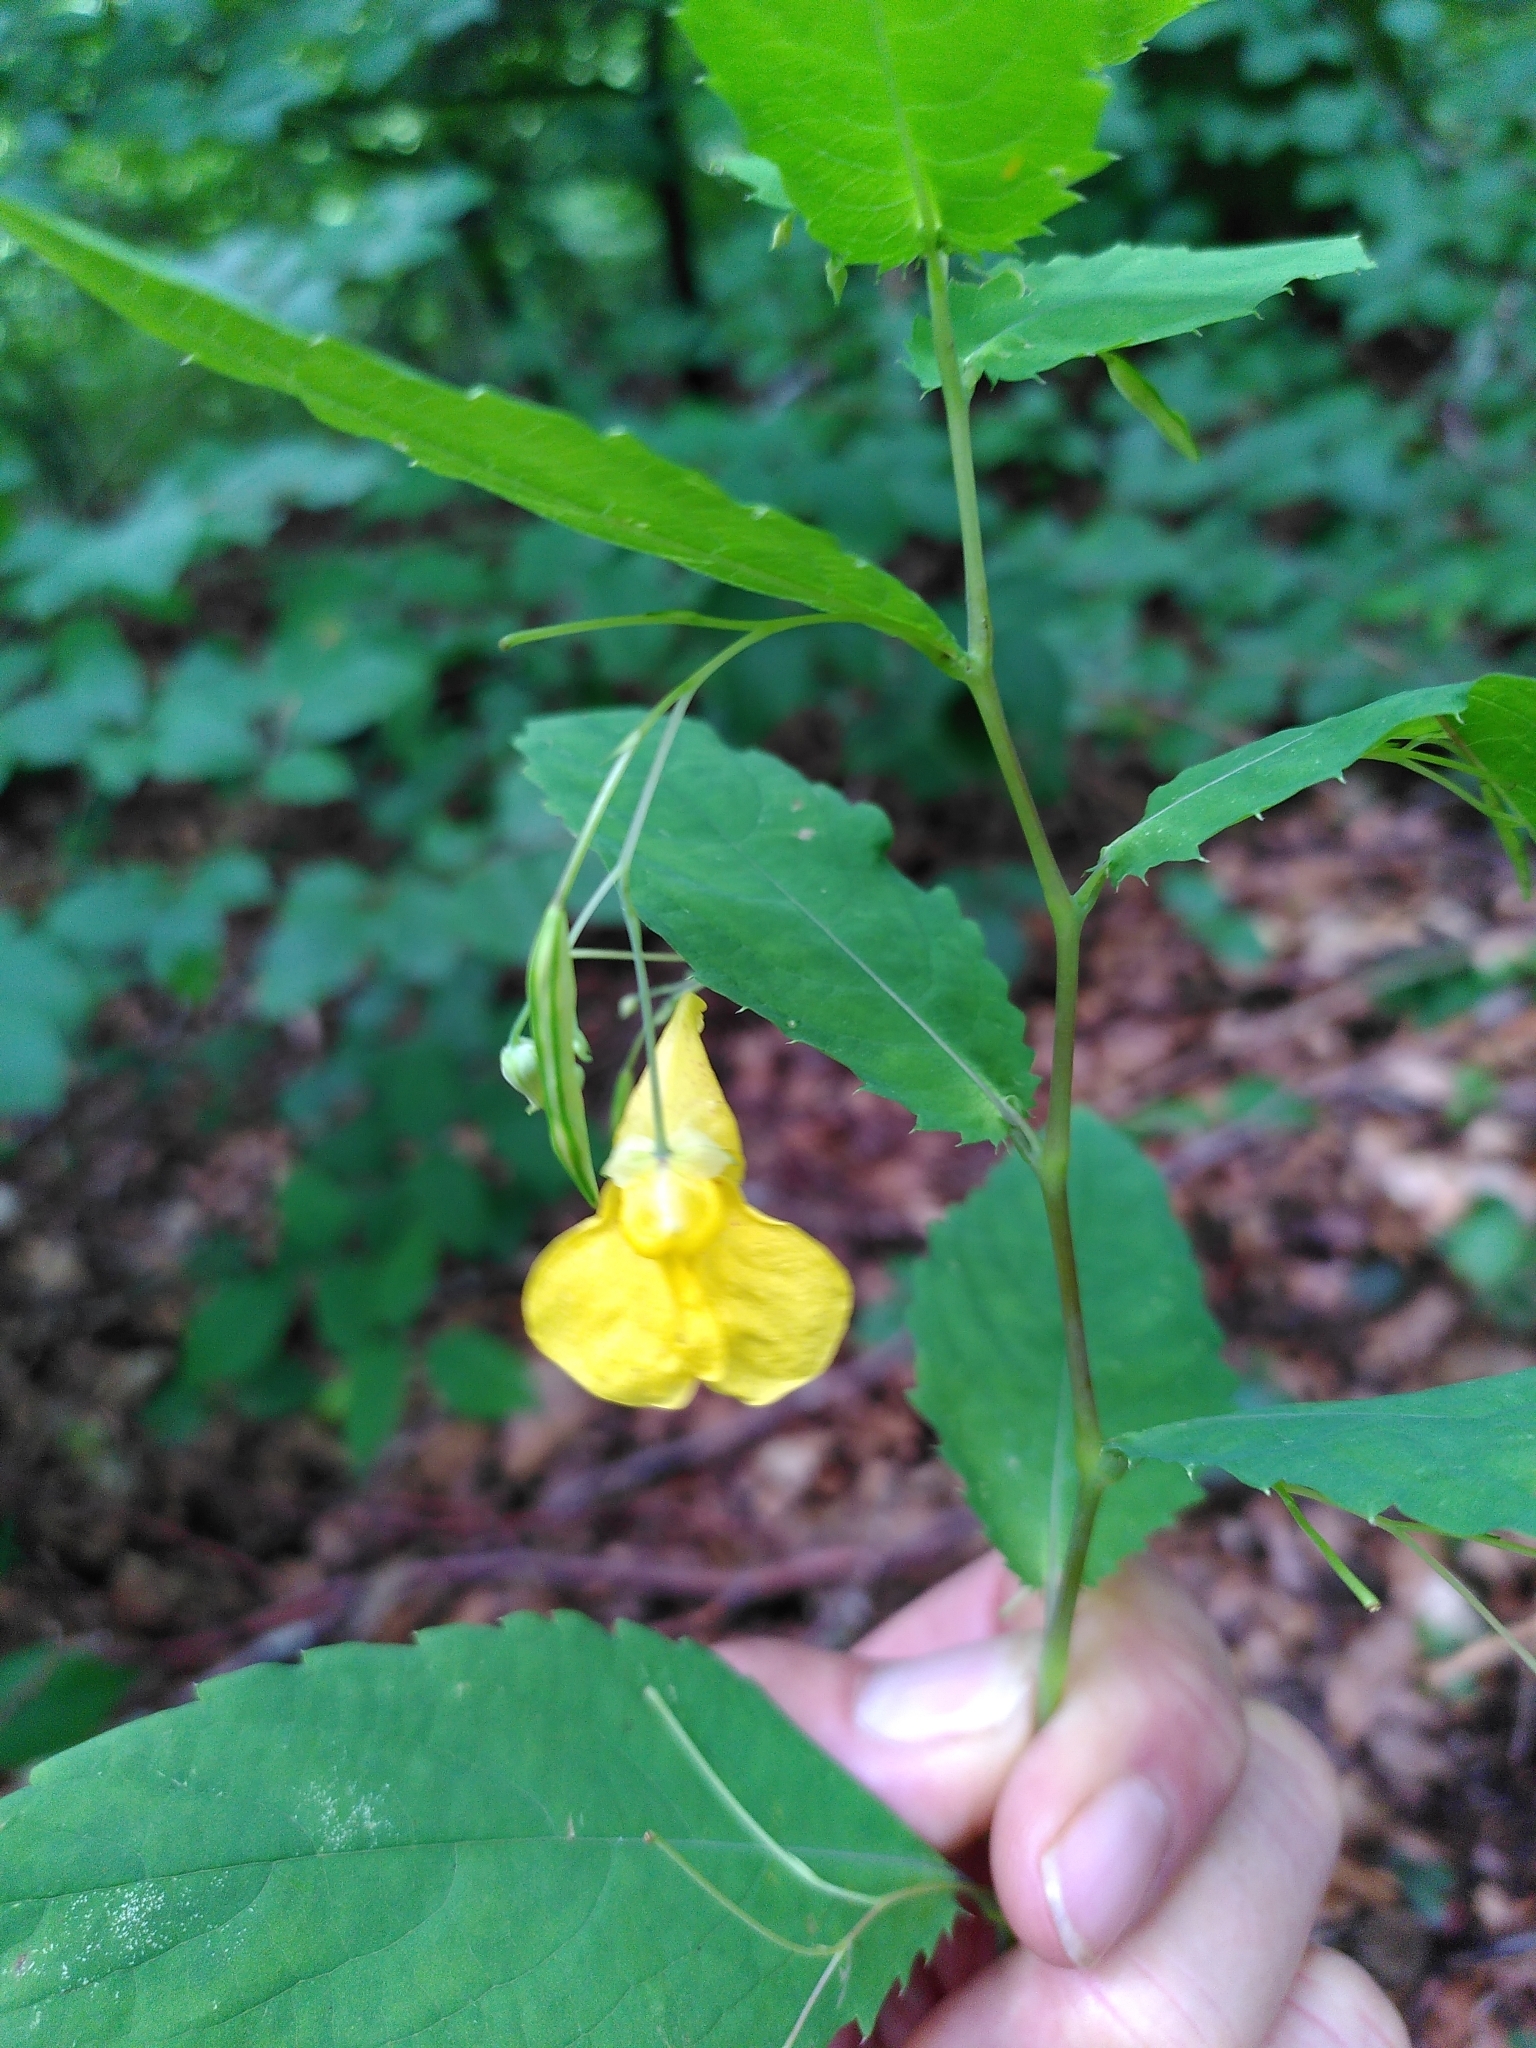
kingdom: Plantae
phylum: Tracheophyta
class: Magnoliopsida
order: Ericales
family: Balsaminaceae
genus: Impatiens
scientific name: Impatiens noli-tangere
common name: Touch-me-not balsam
